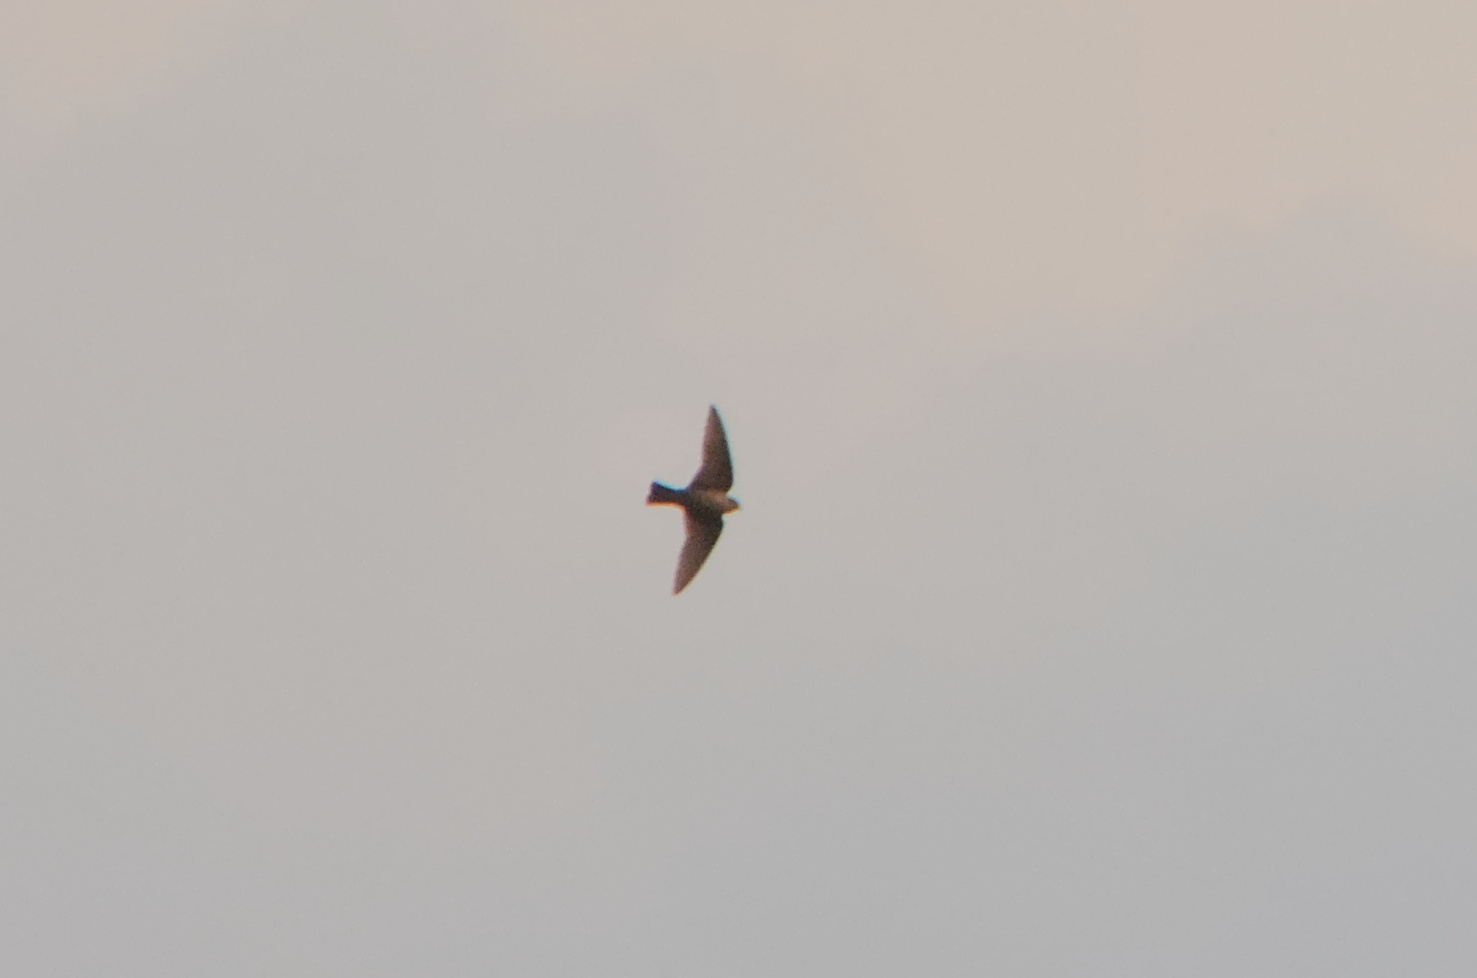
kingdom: Animalia
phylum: Chordata
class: Aves
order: Passeriformes
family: Hirundinidae
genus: Ptyonoprogne
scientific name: Ptyonoprogne fuligula
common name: Rock martin
